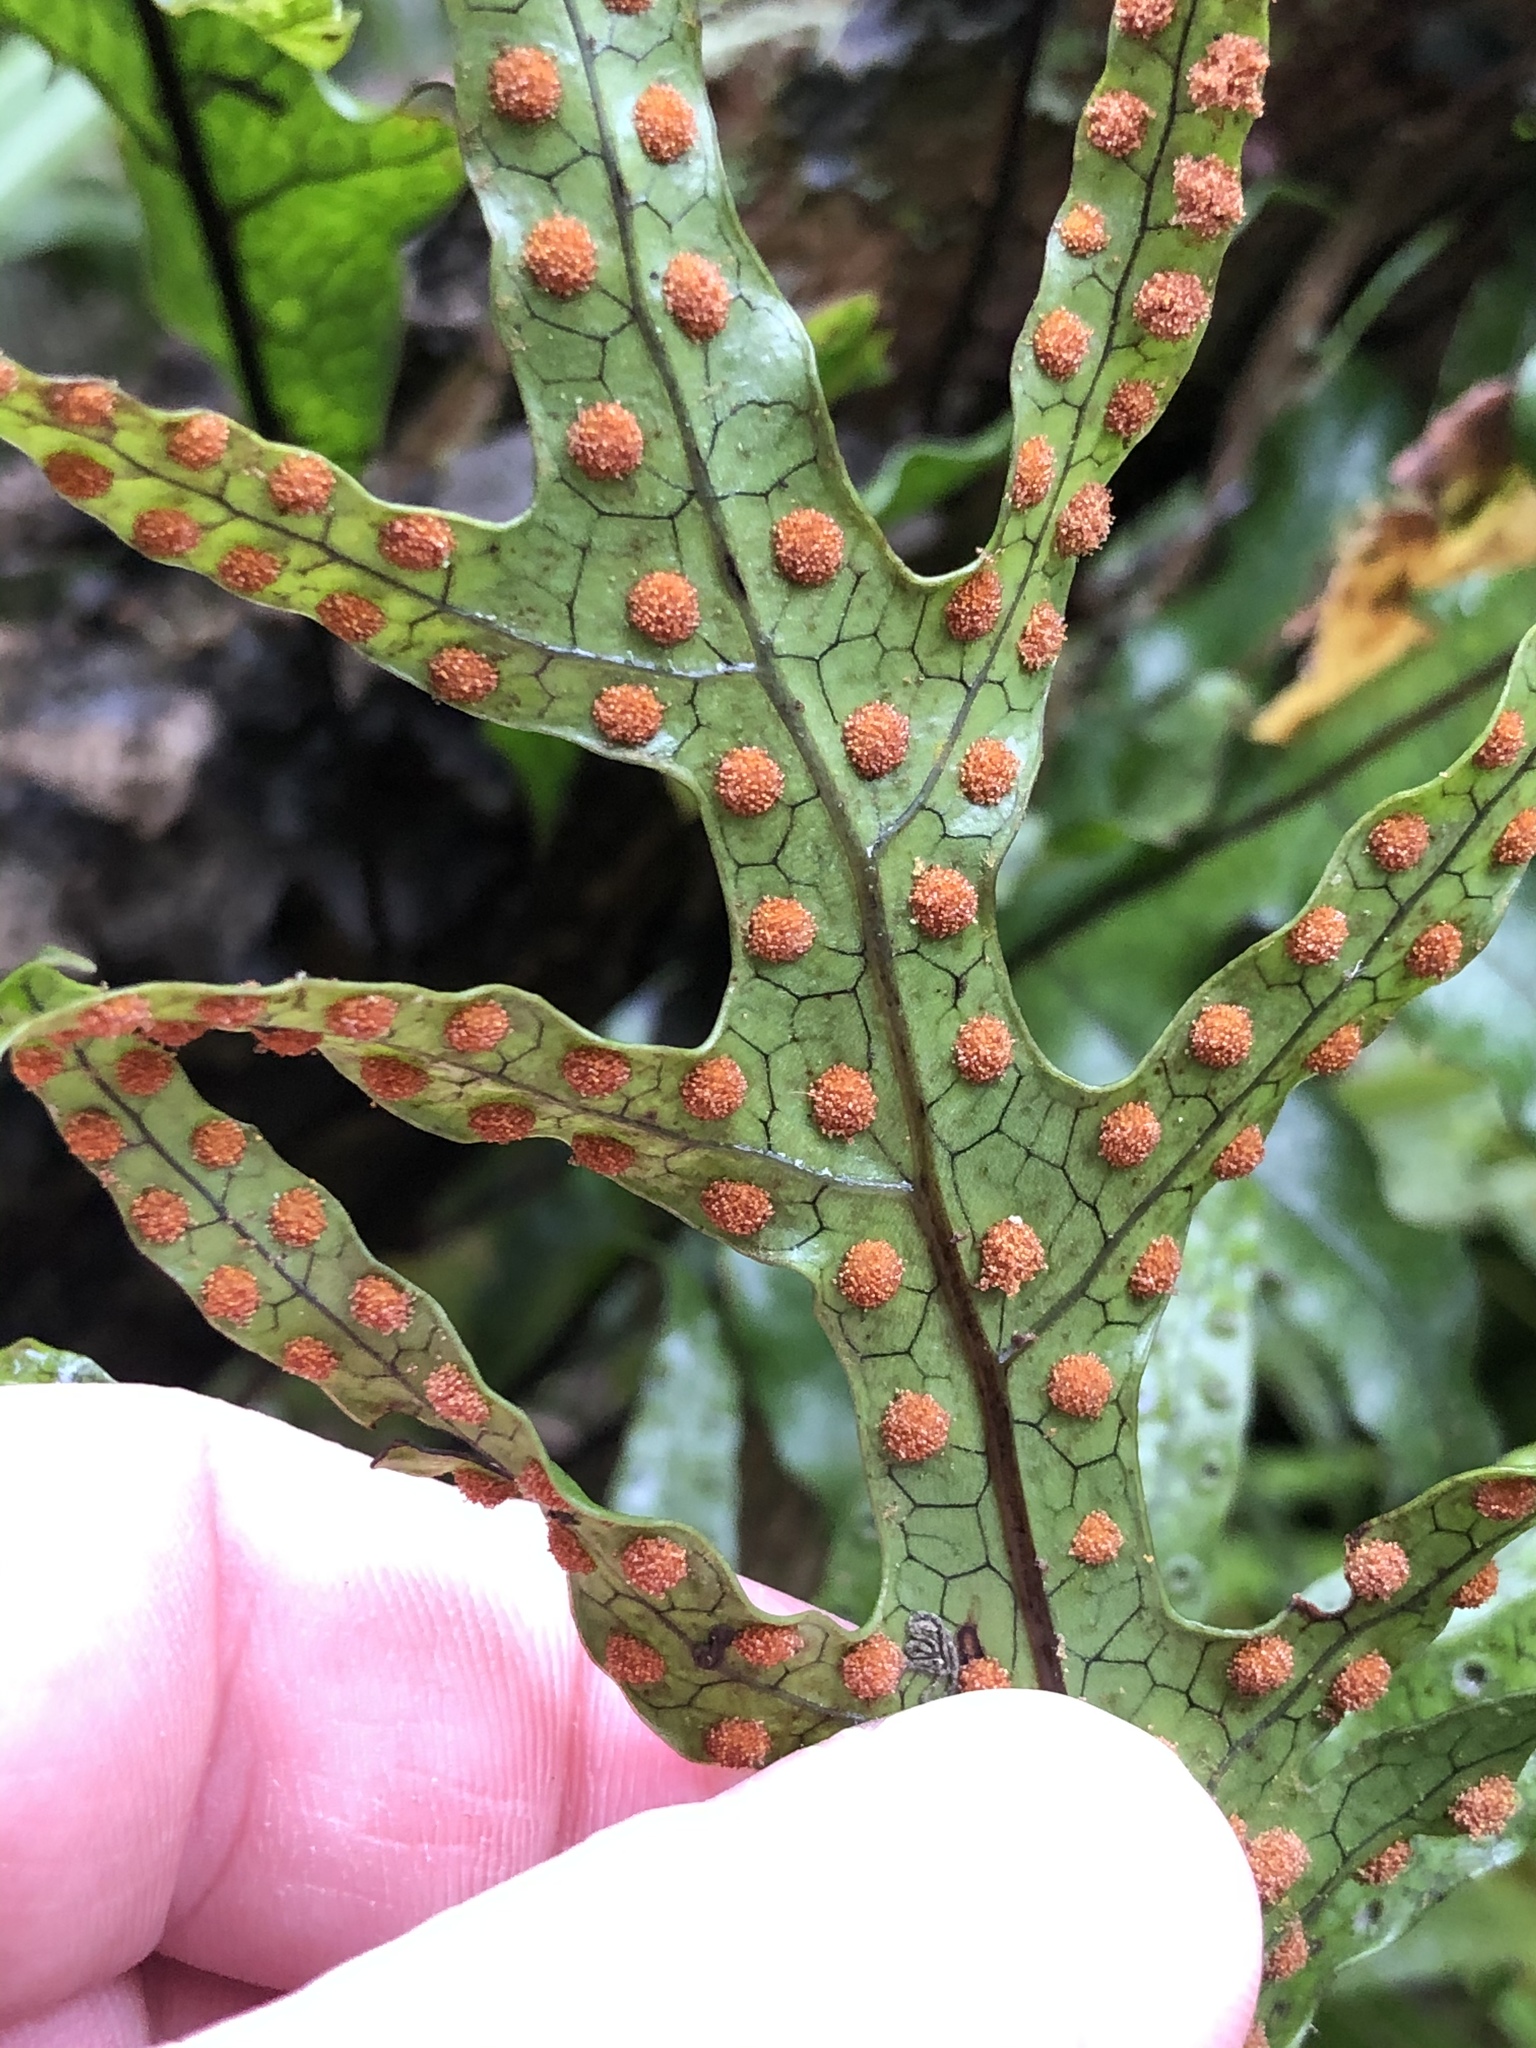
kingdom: Plantae
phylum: Tracheophyta
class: Polypodiopsida
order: Polypodiales
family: Polypodiaceae
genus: Lecanopteris
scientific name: Lecanopteris pustulata
